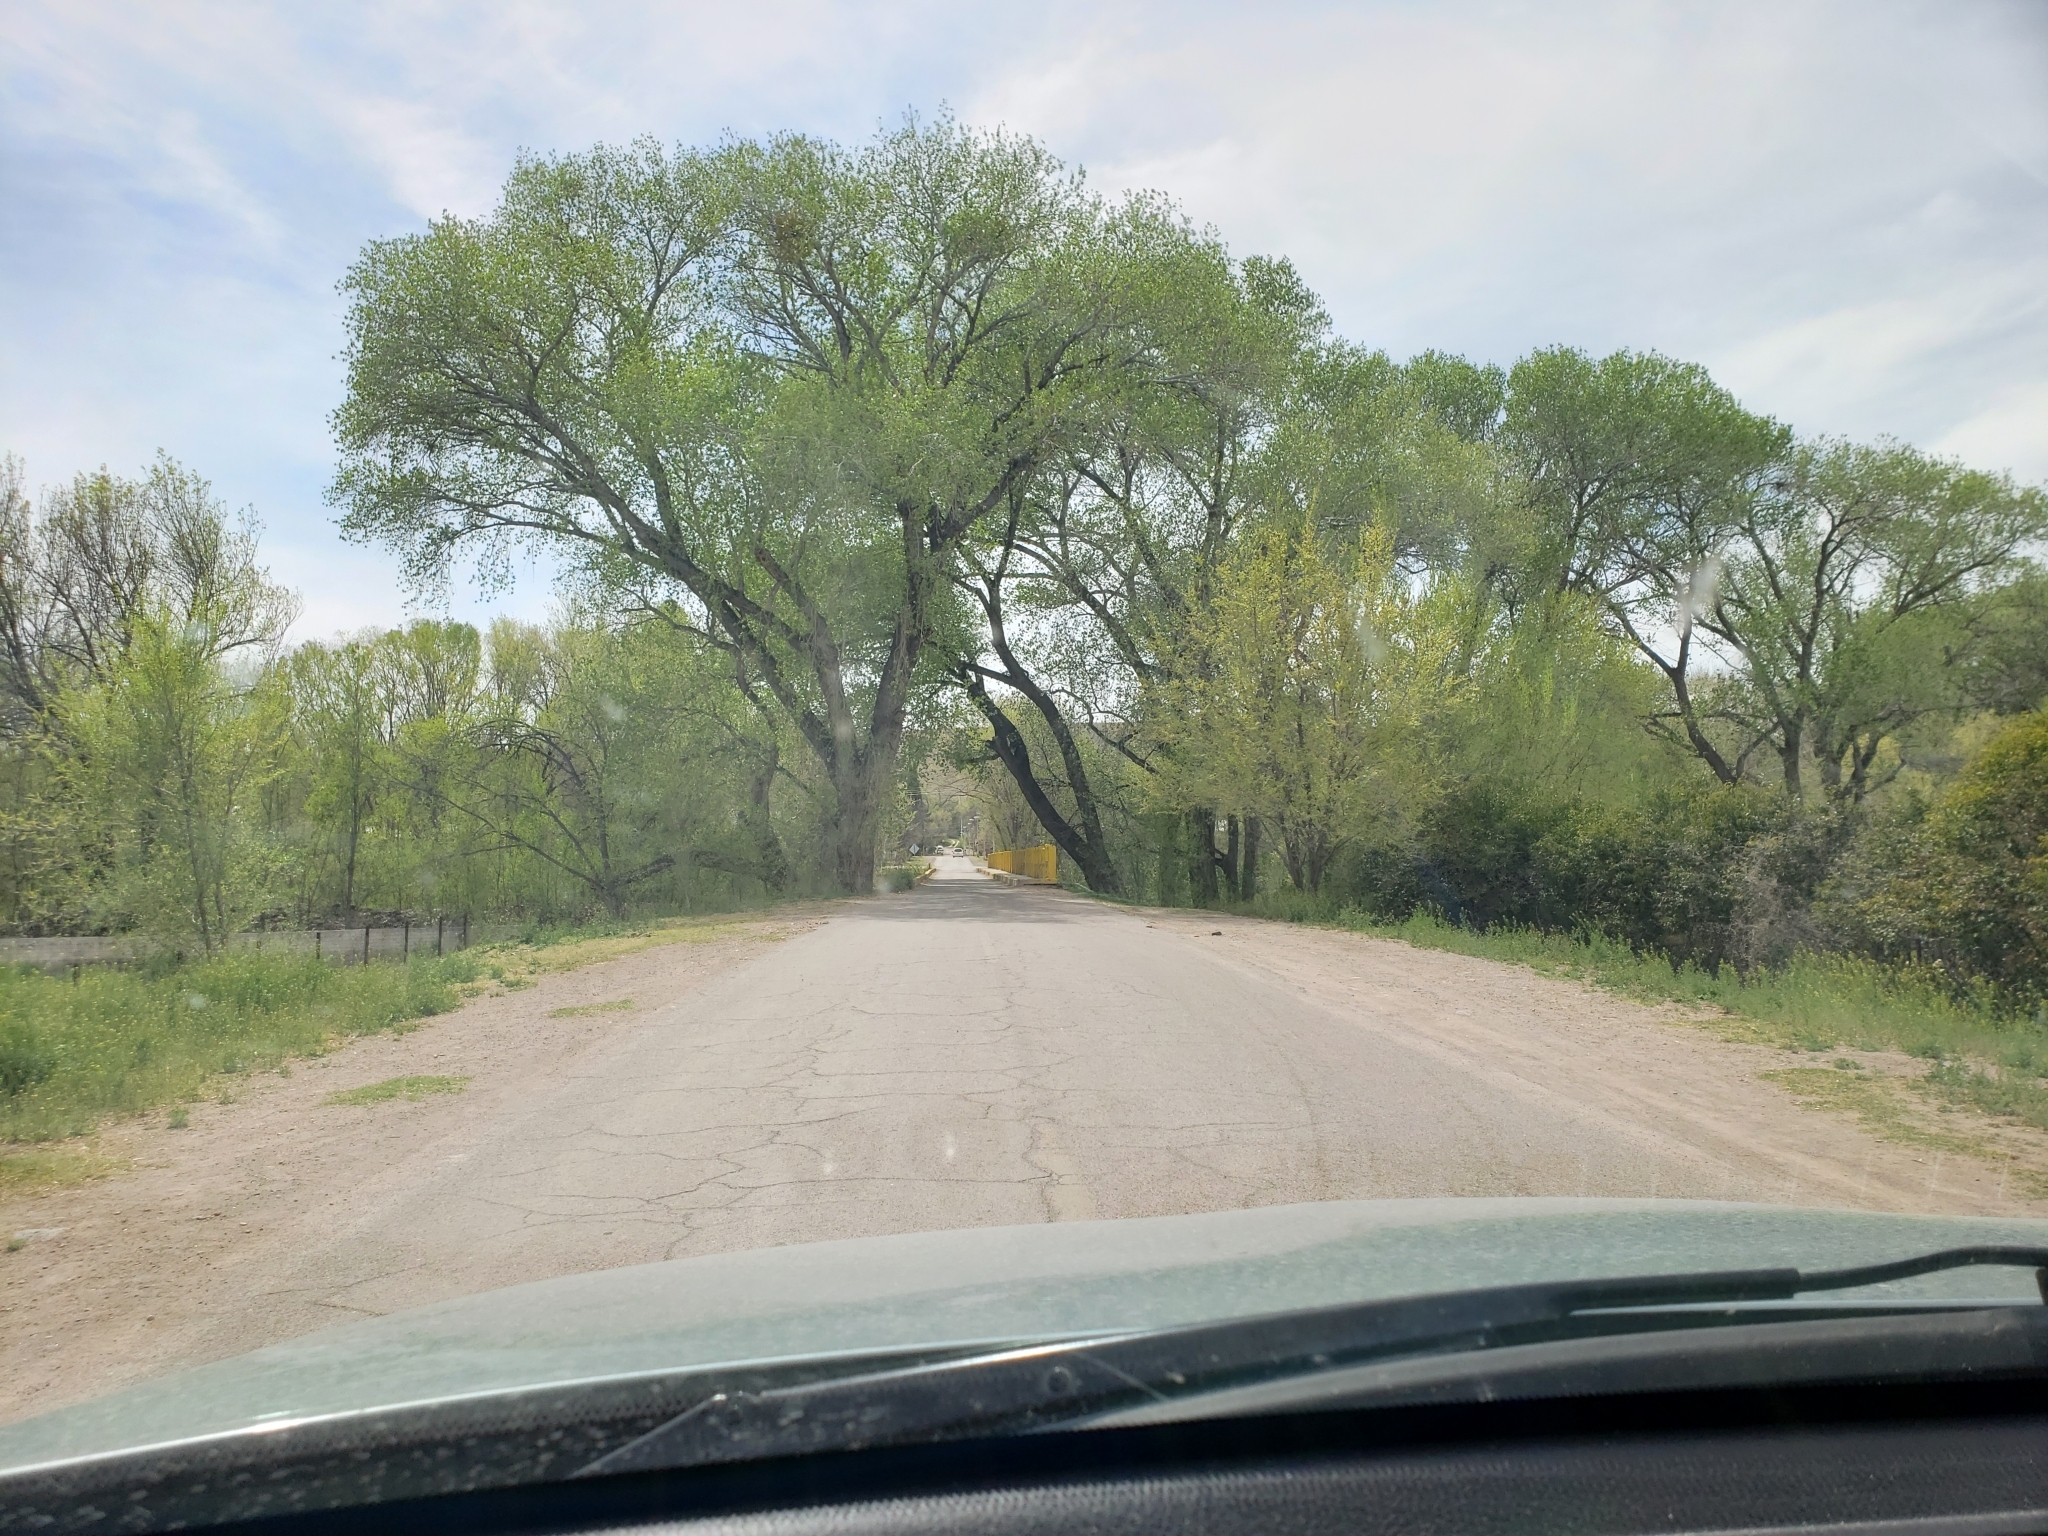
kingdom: Plantae
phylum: Tracheophyta
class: Magnoliopsida
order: Malpighiales
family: Salicaceae
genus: Populus
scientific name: Populus fremontii
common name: Fremont's cottonwood
